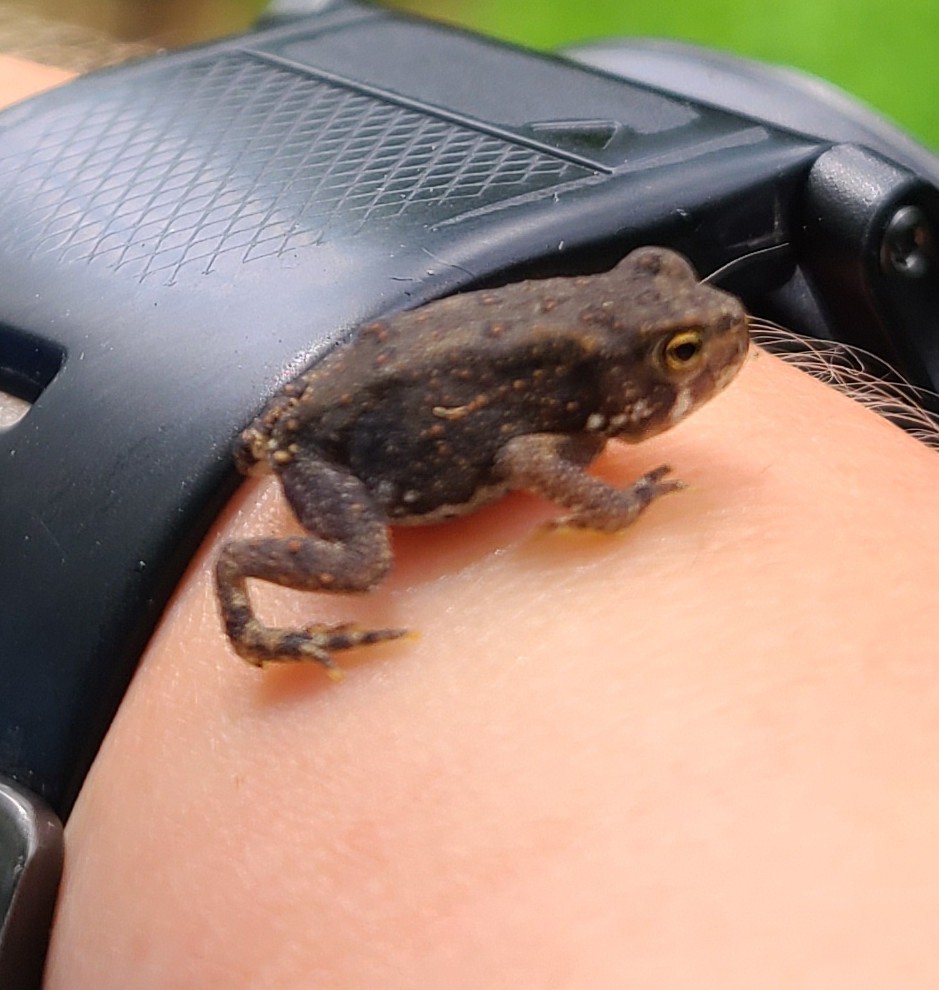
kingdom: Animalia
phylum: Chordata
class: Amphibia
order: Anura
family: Bufonidae
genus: Anaxyrus
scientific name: Anaxyrus americanus
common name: American toad
